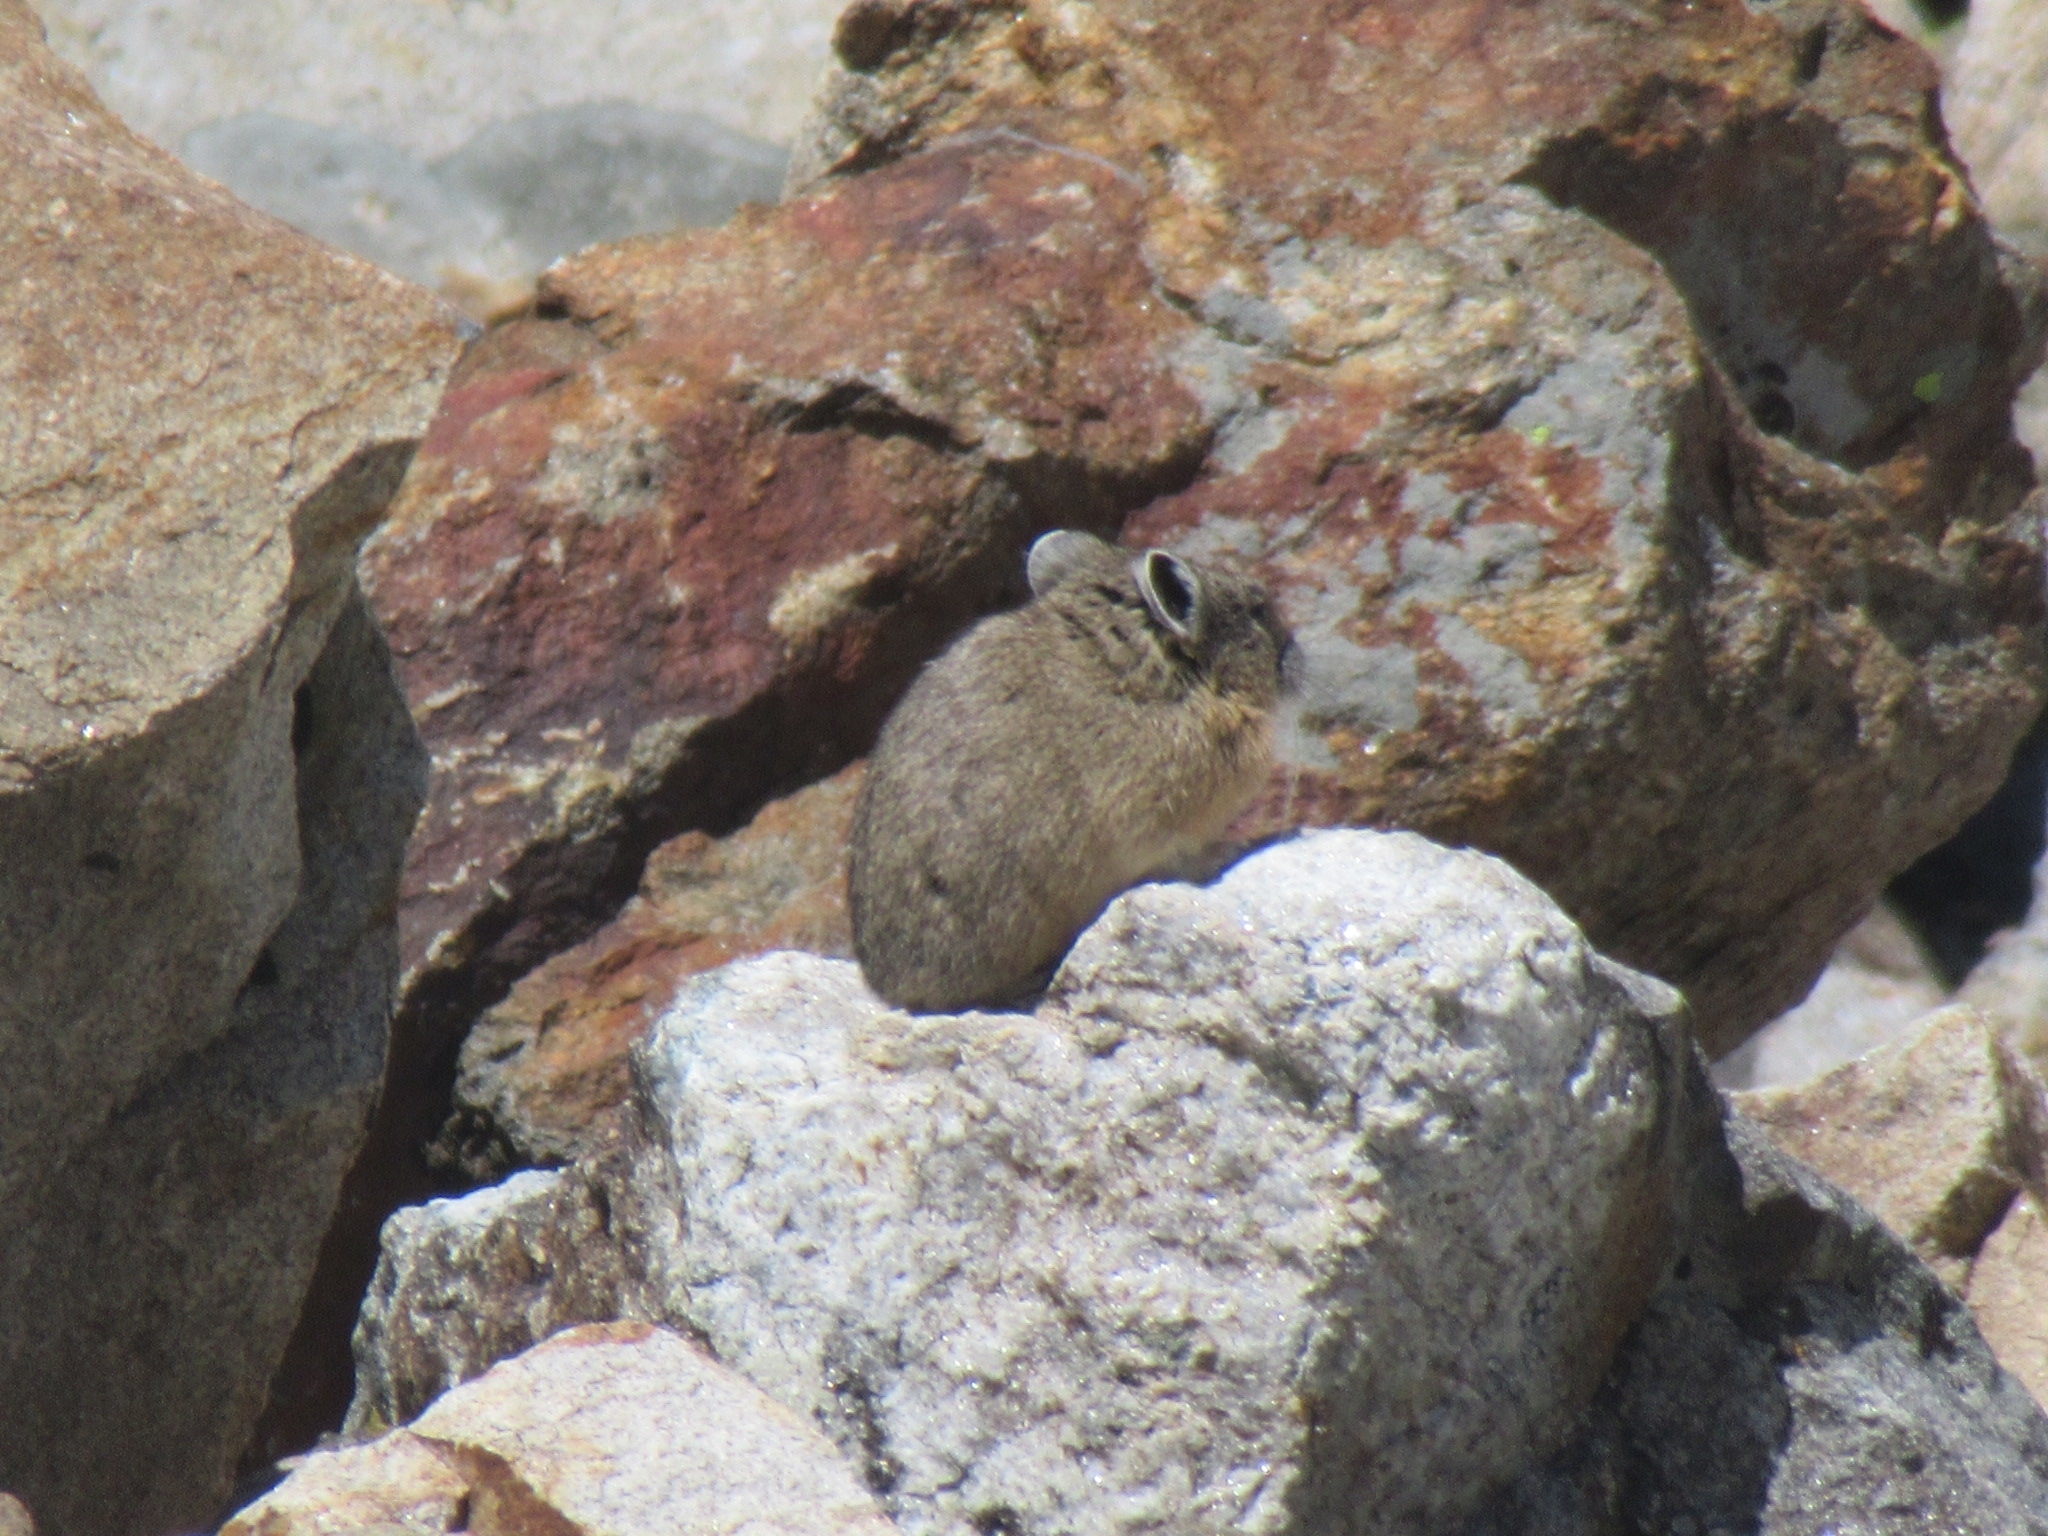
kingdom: Animalia
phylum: Chordata
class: Mammalia
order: Lagomorpha
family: Ochotonidae
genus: Ochotona
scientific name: Ochotona princeps
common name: American pika
